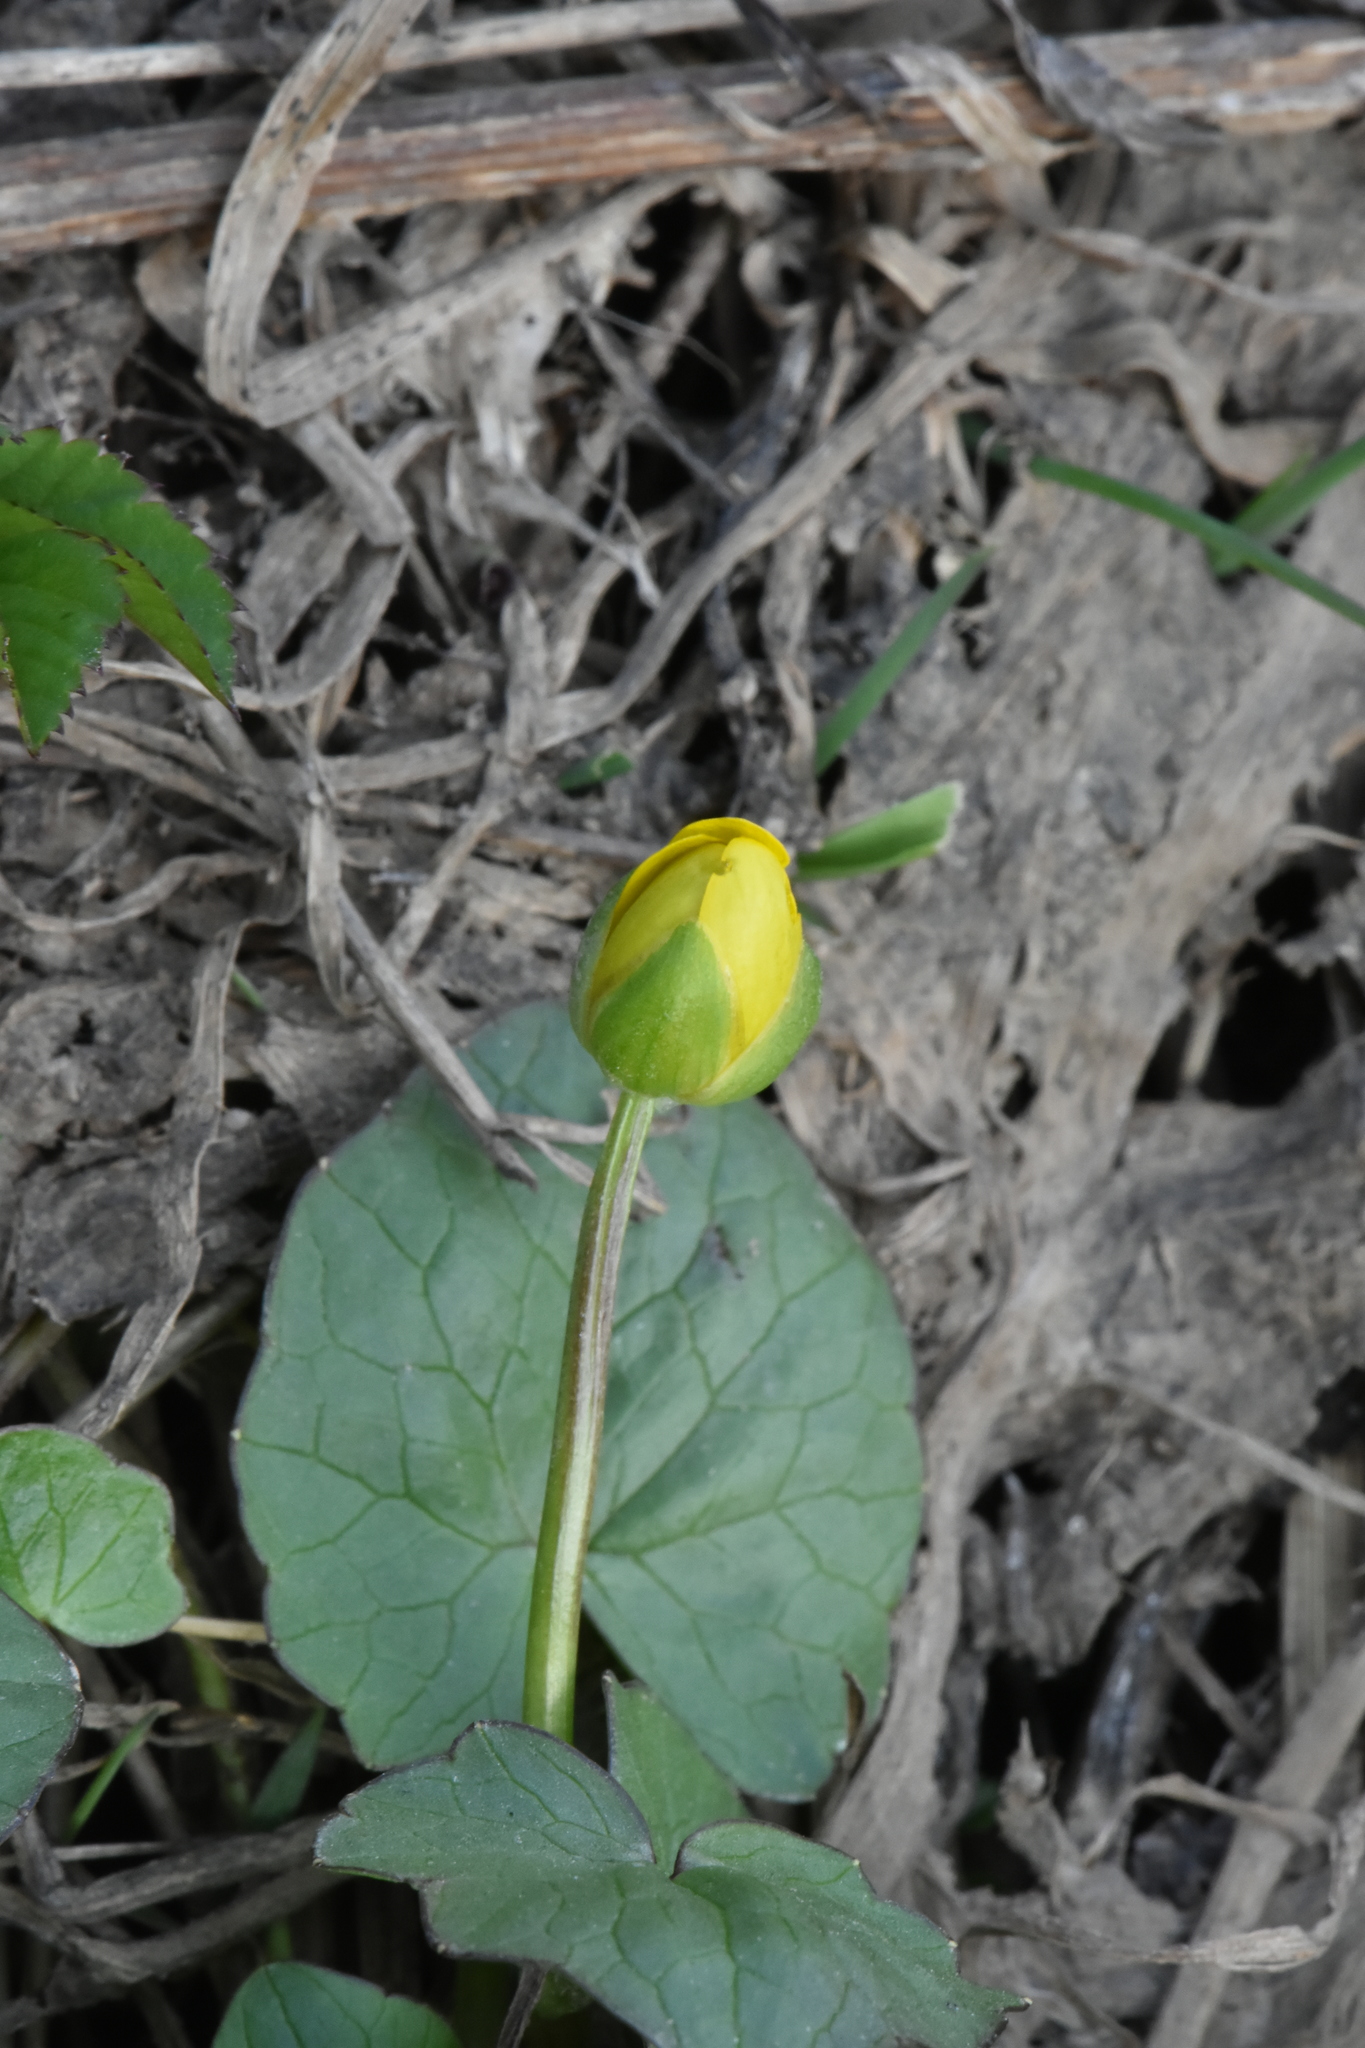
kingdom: Plantae
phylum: Tracheophyta
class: Magnoliopsida
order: Ranunculales
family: Ranunculaceae
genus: Ficaria
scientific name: Ficaria verna
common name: Lesser celandine
